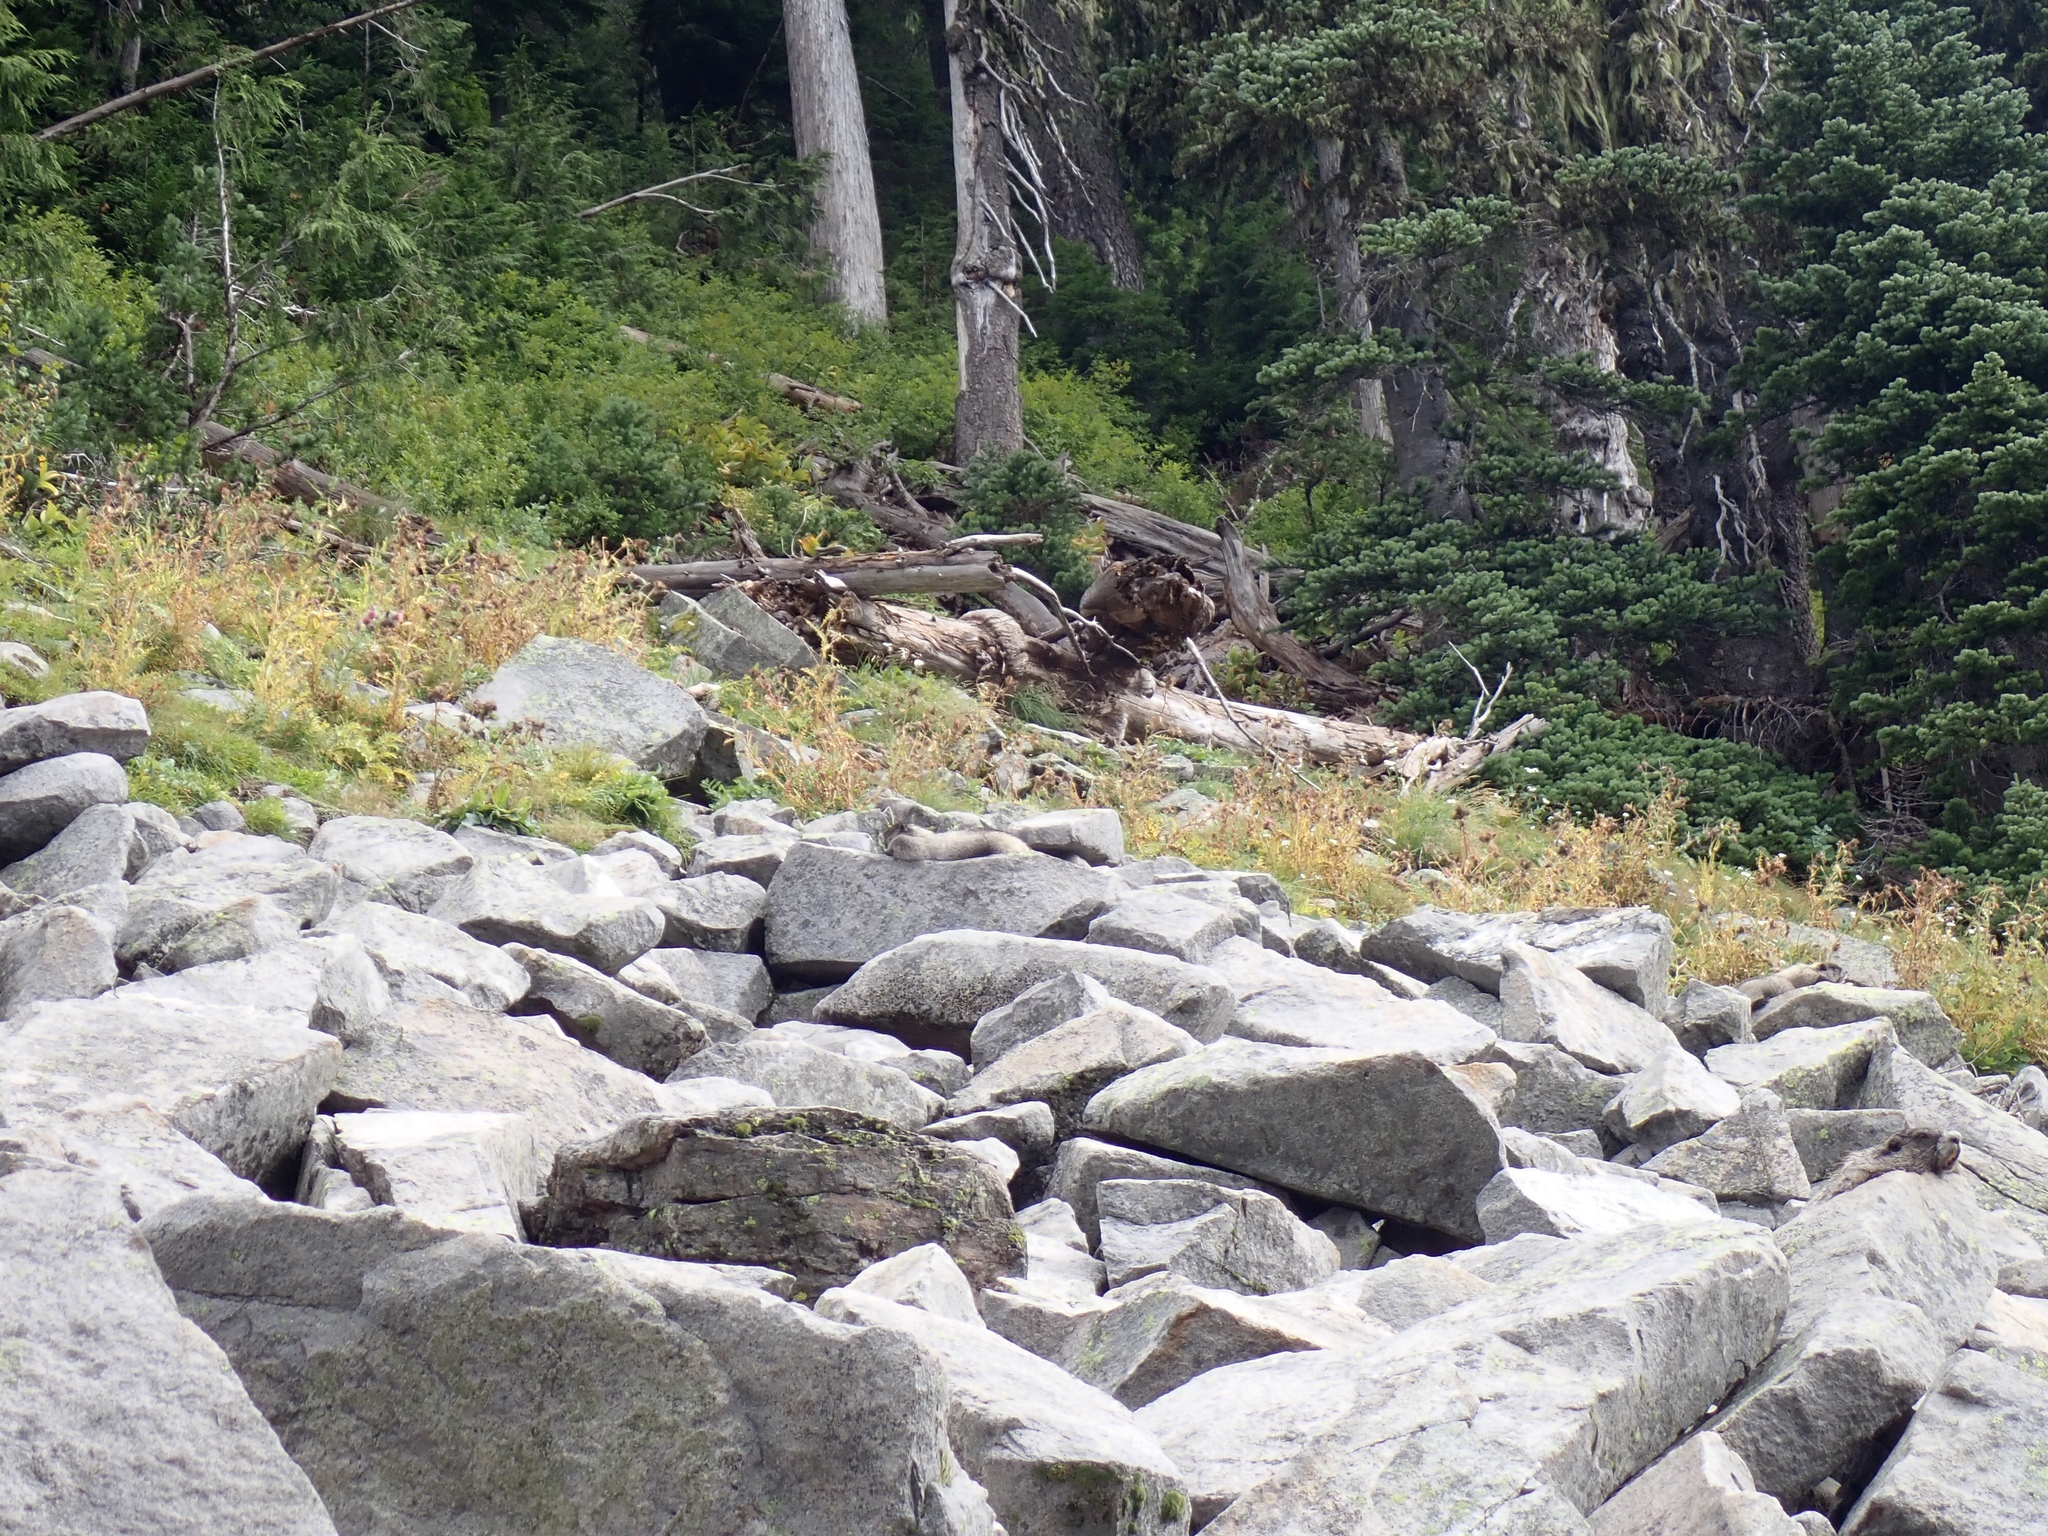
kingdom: Animalia
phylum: Chordata
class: Mammalia
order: Rodentia
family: Sciuridae
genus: Marmota
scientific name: Marmota caligata
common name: Hoary marmot
